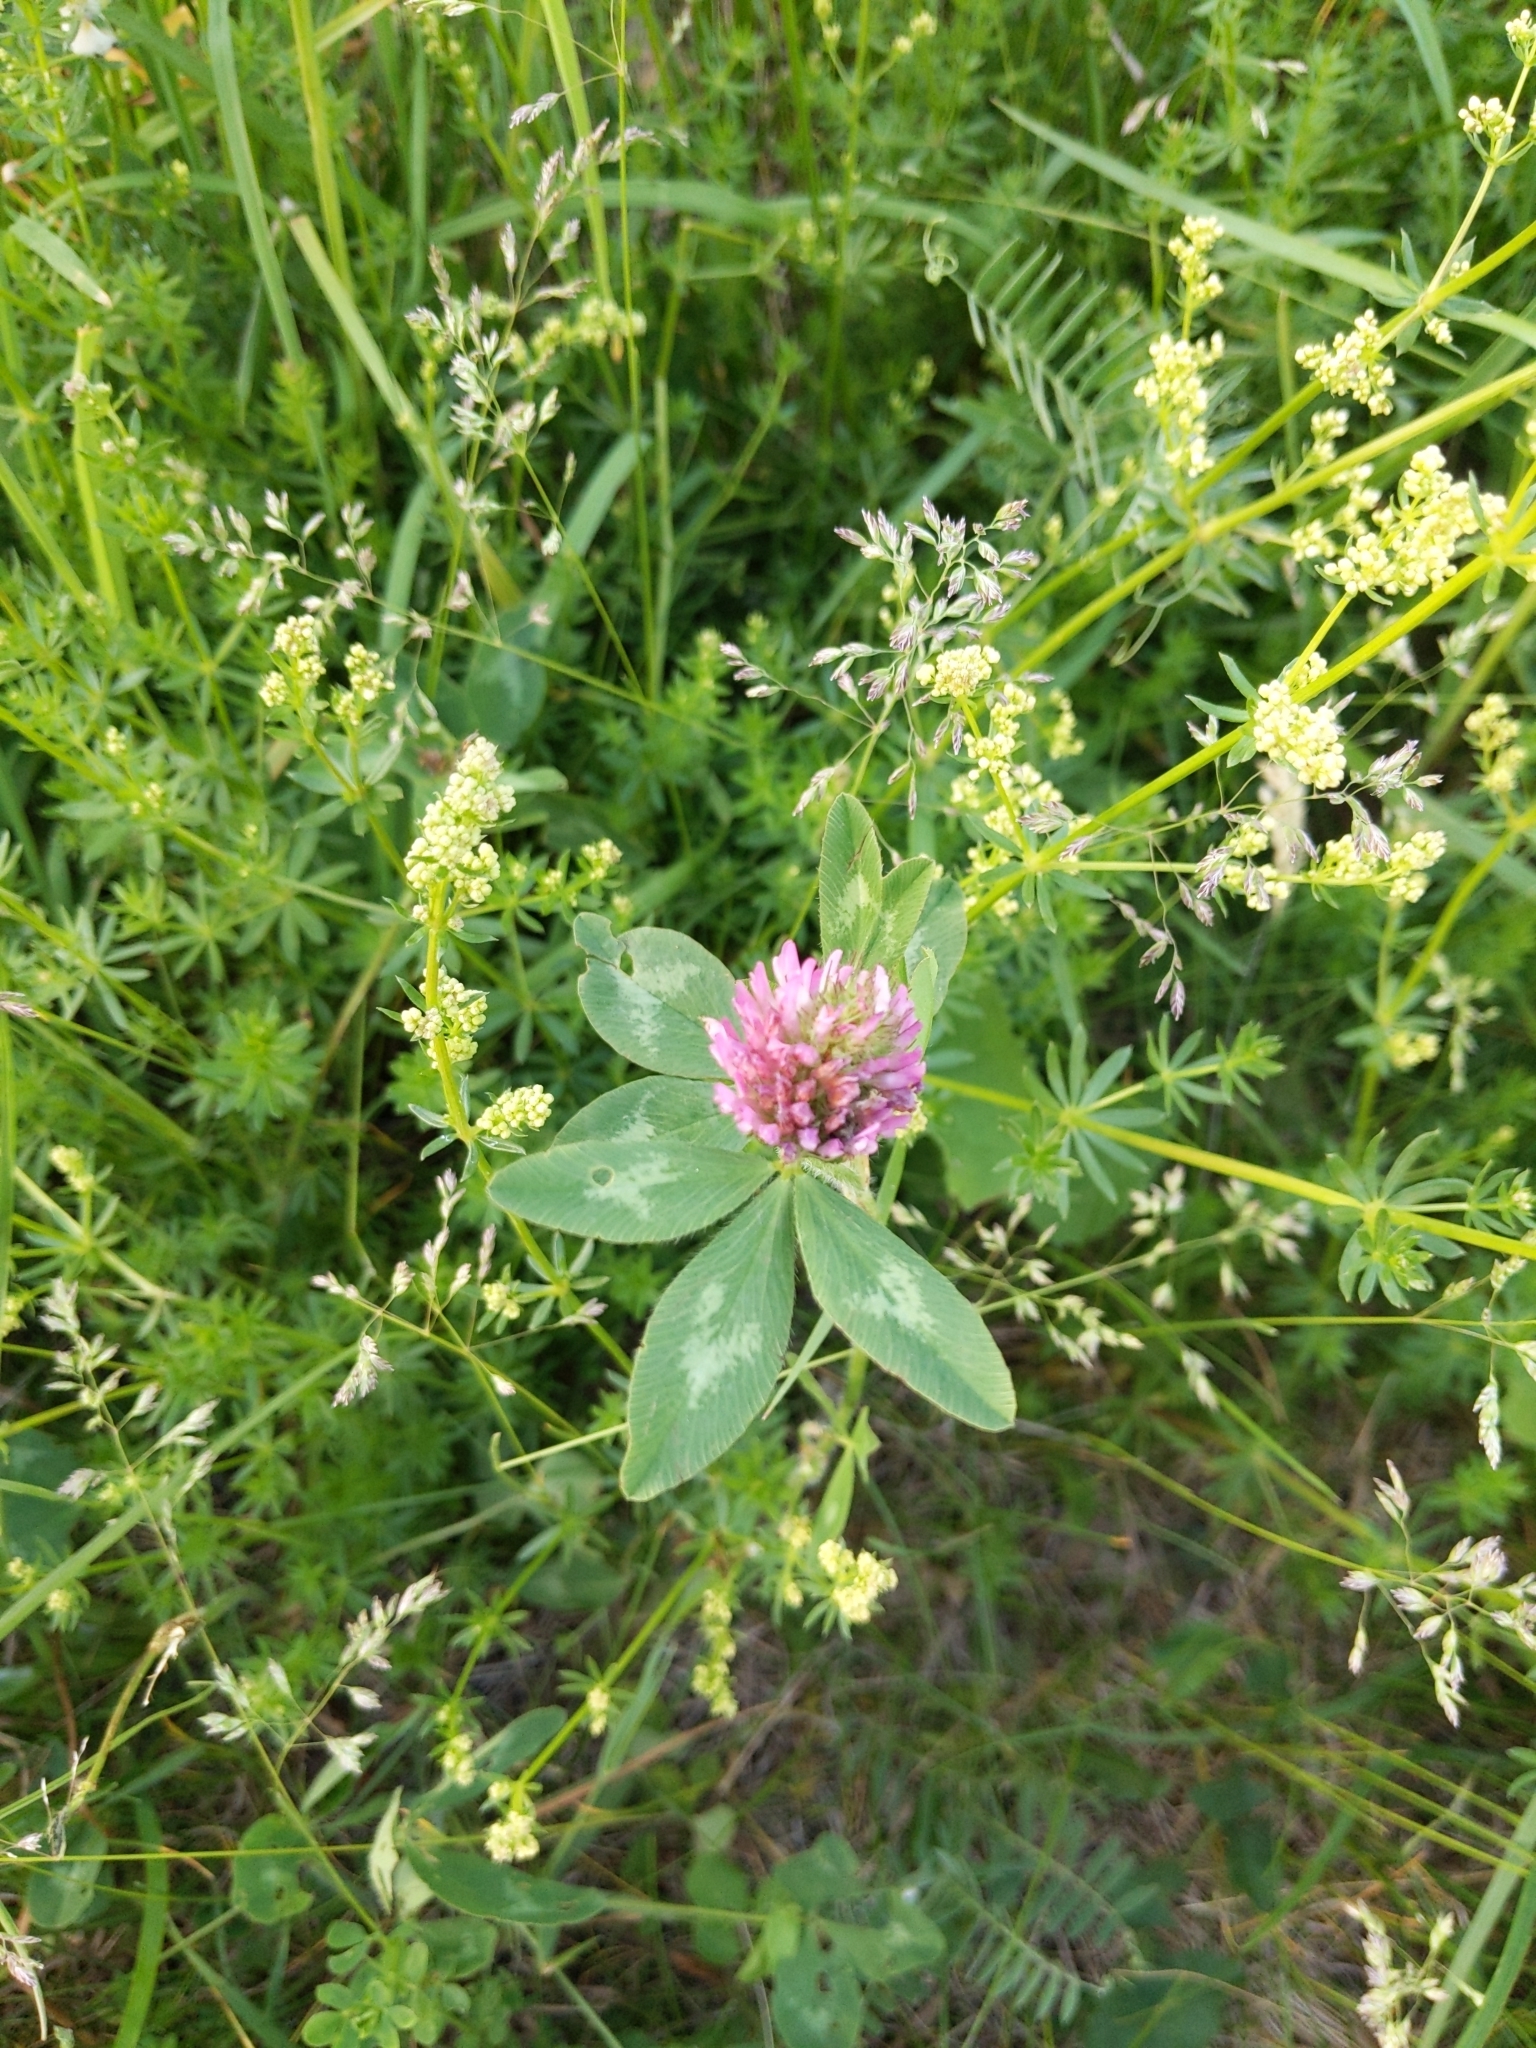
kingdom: Plantae
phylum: Tracheophyta
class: Magnoliopsida
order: Fabales
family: Fabaceae
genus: Trifolium
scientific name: Trifolium pratense
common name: Red clover
